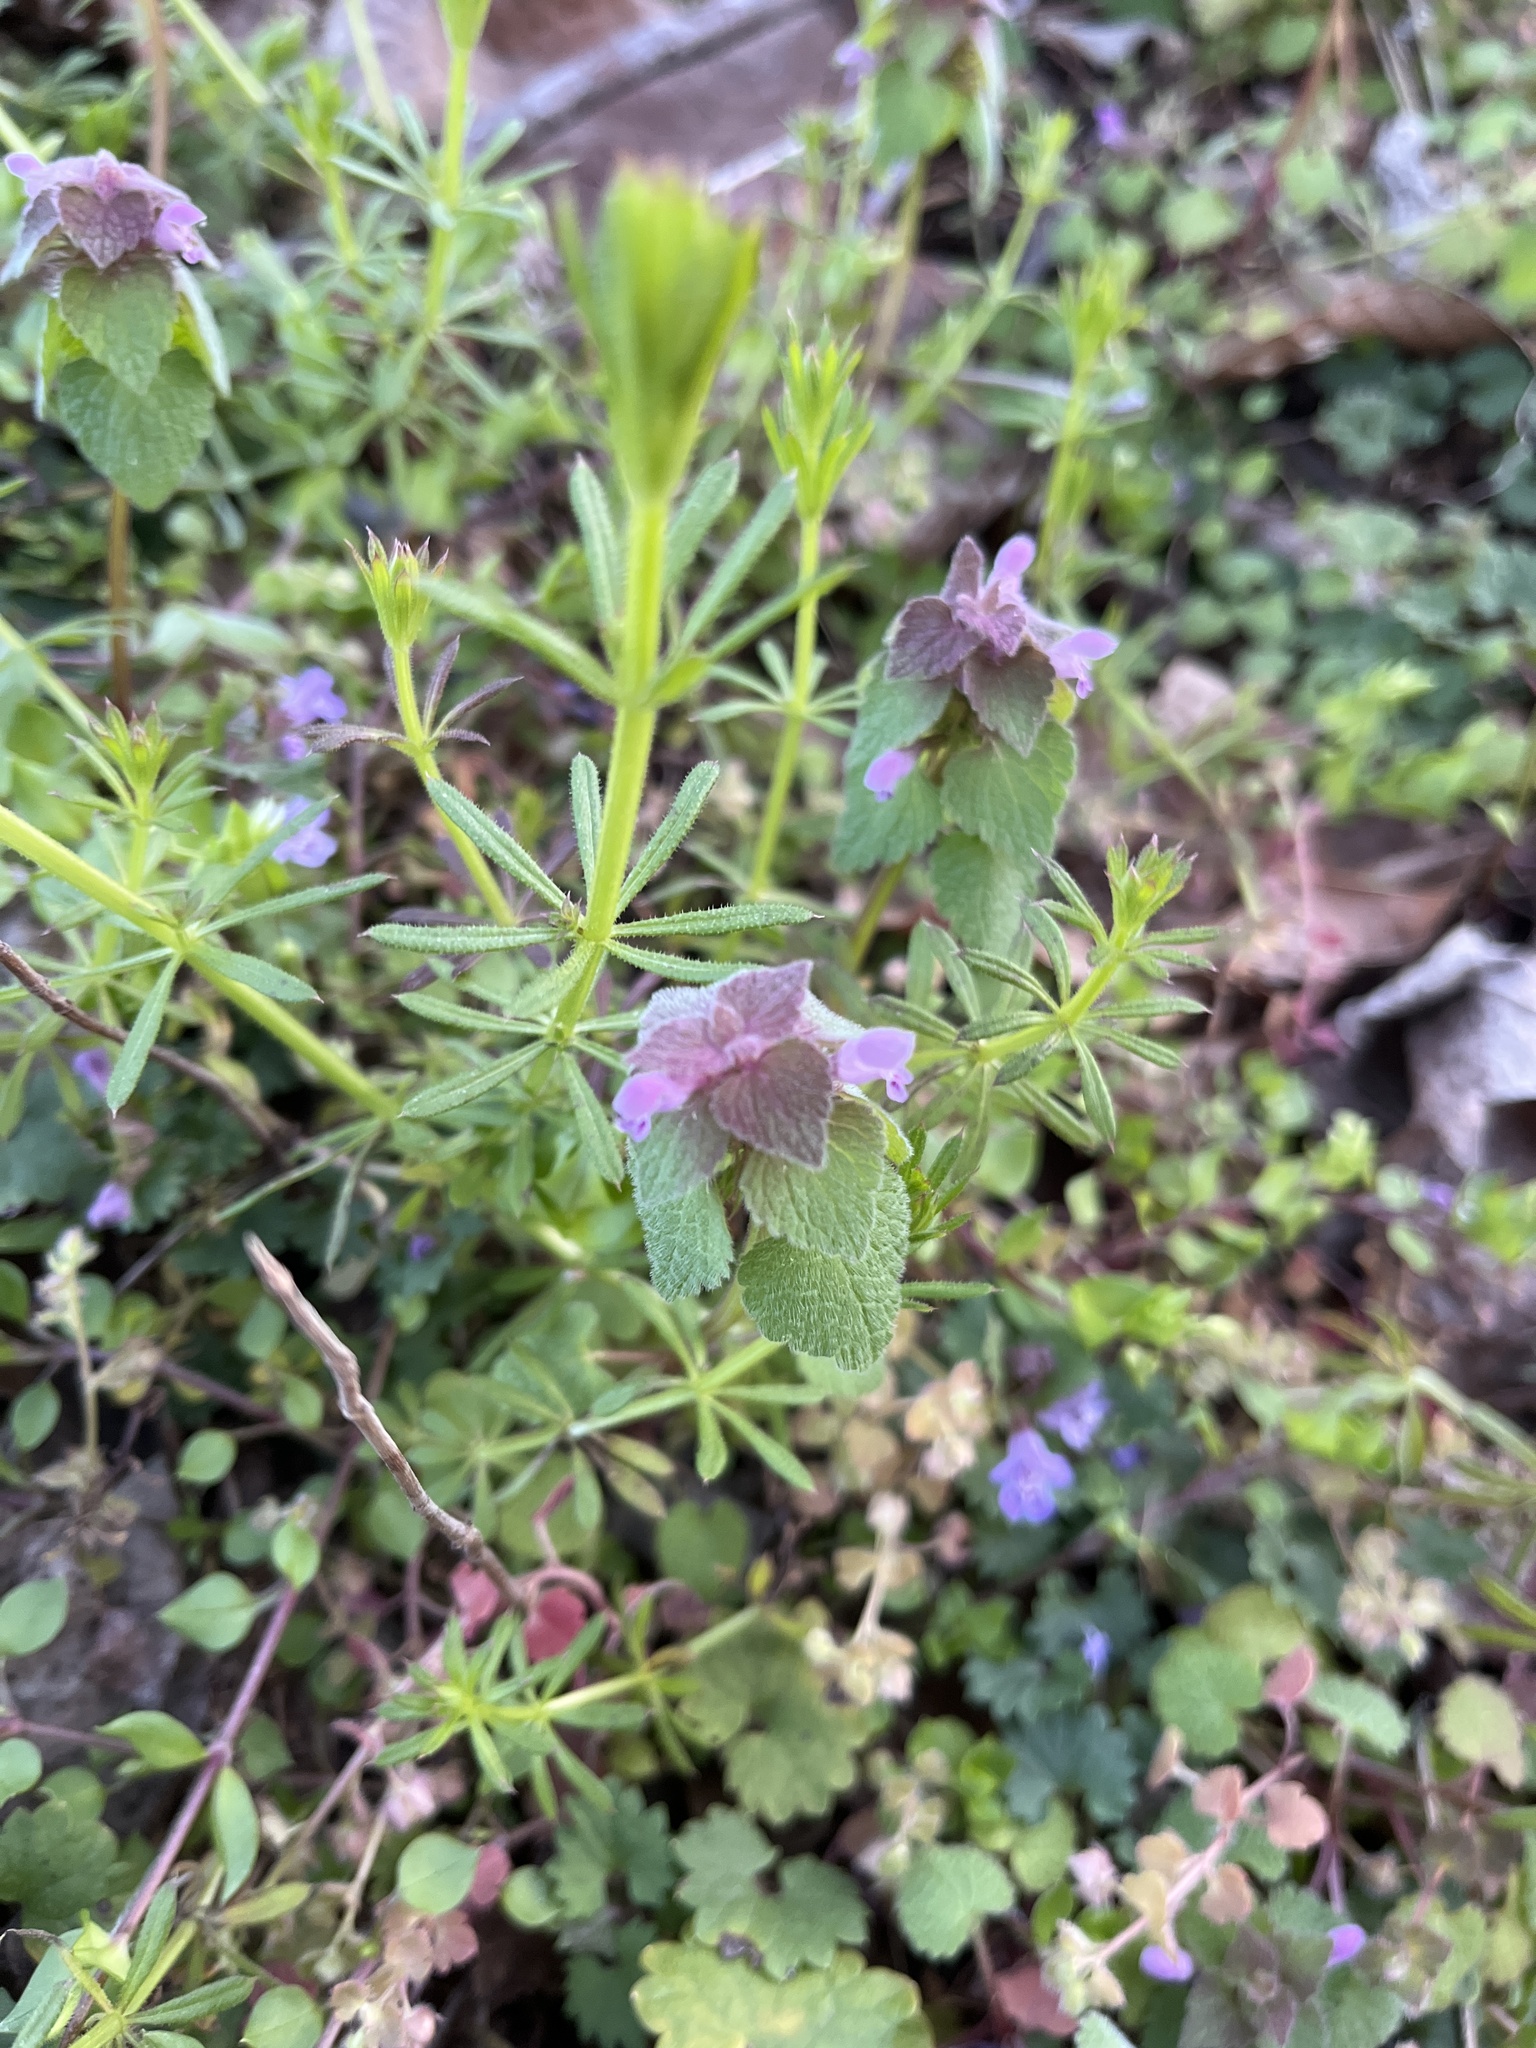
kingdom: Plantae
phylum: Tracheophyta
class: Magnoliopsida
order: Lamiales
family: Lamiaceae
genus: Lamium
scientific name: Lamium purpureum
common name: Red dead-nettle
